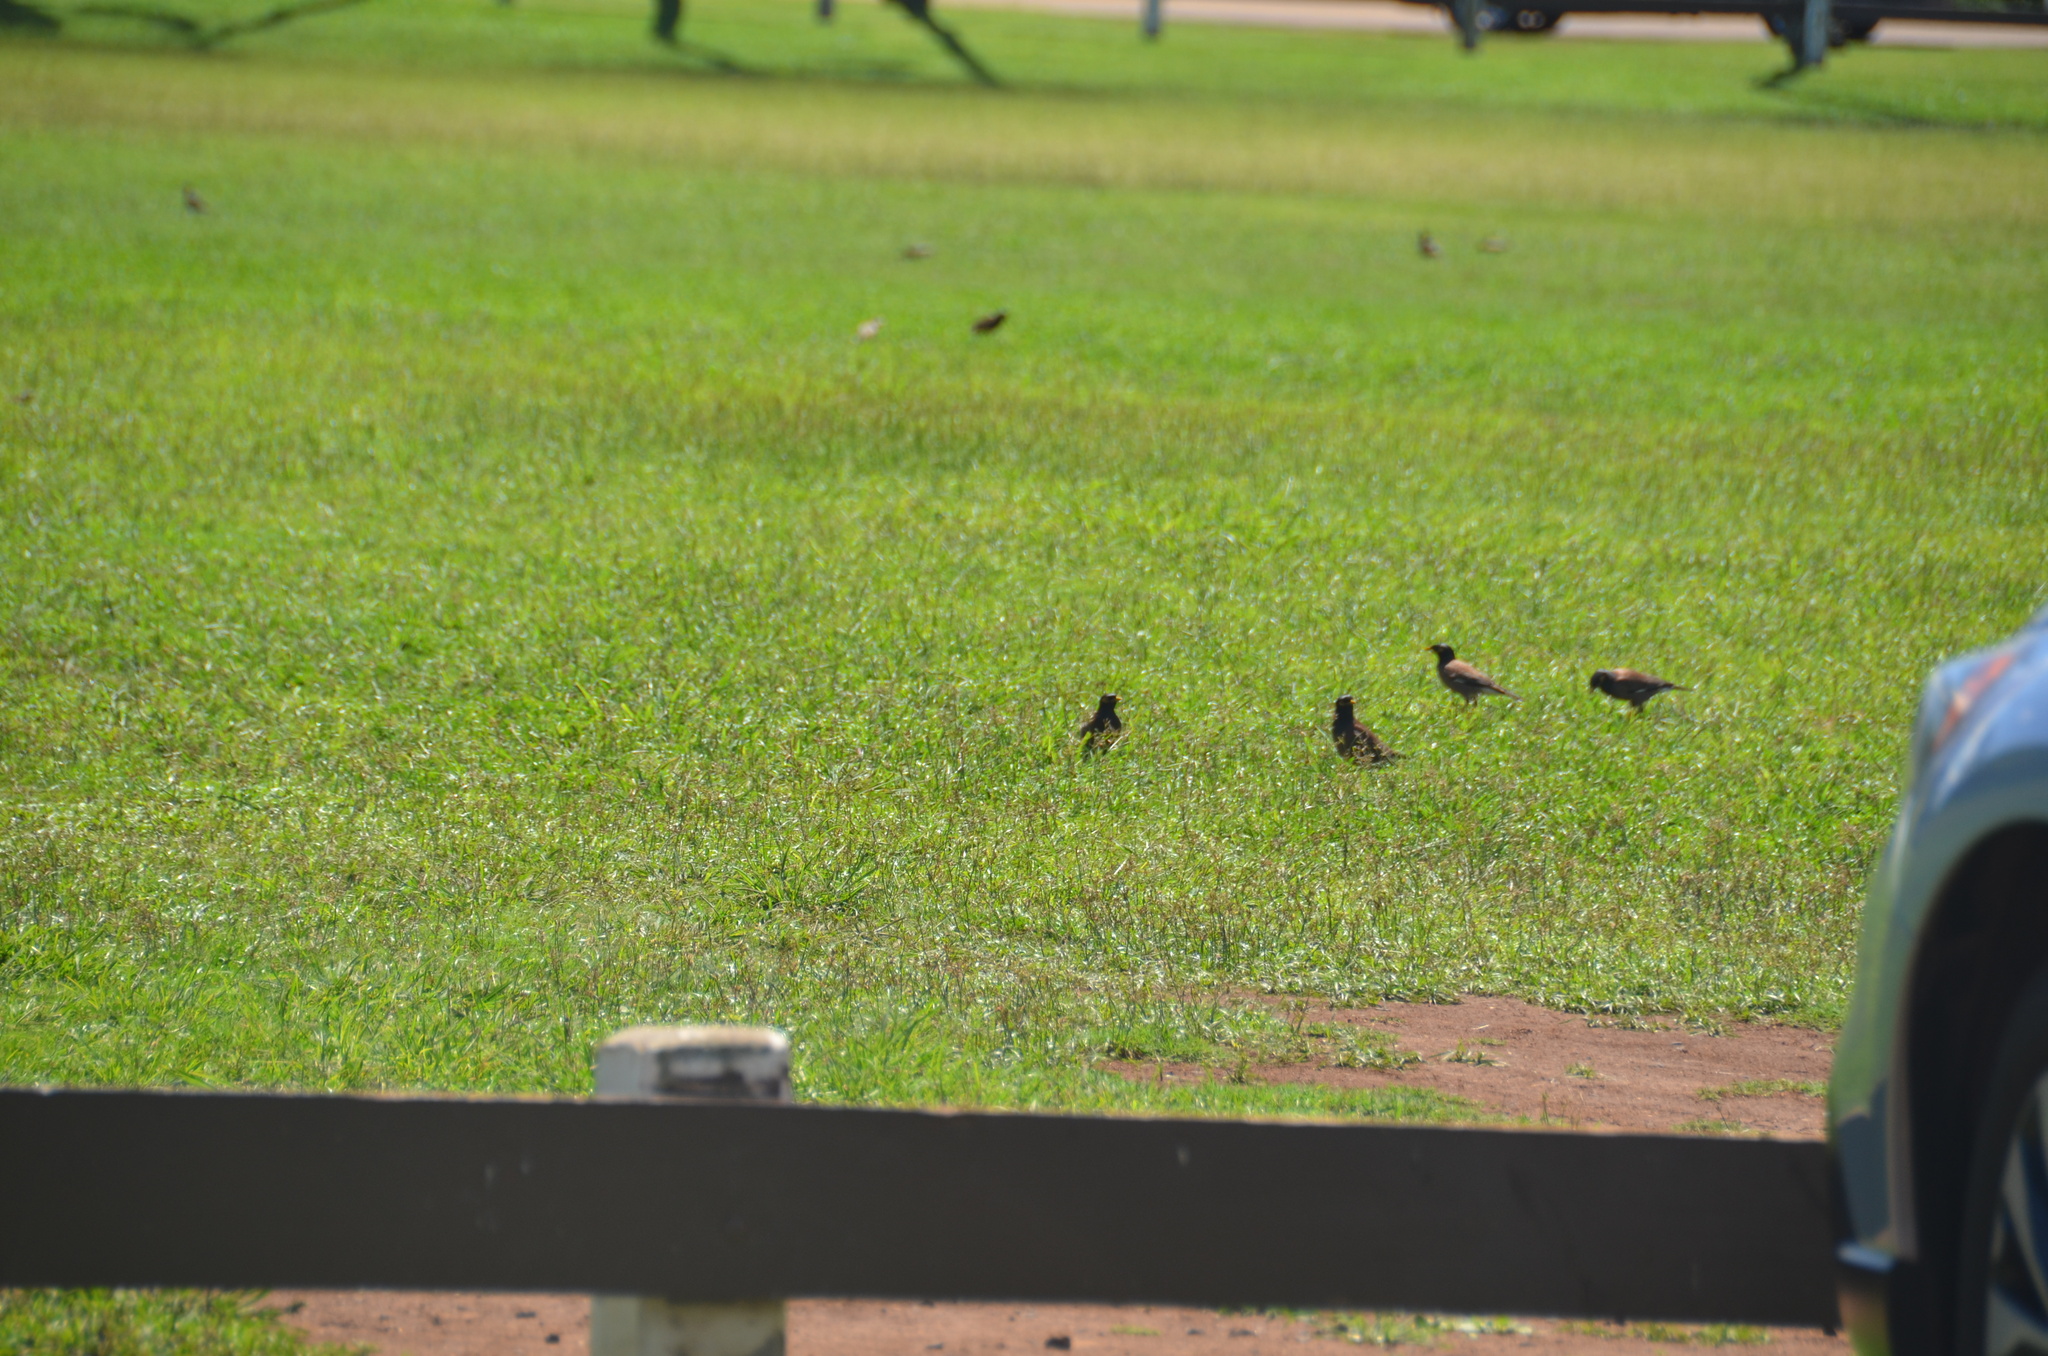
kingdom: Animalia
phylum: Chordata
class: Aves
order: Passeriformes
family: Sturnidae
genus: Acridotheres
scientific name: Acridotheres tristis
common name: Common myna
